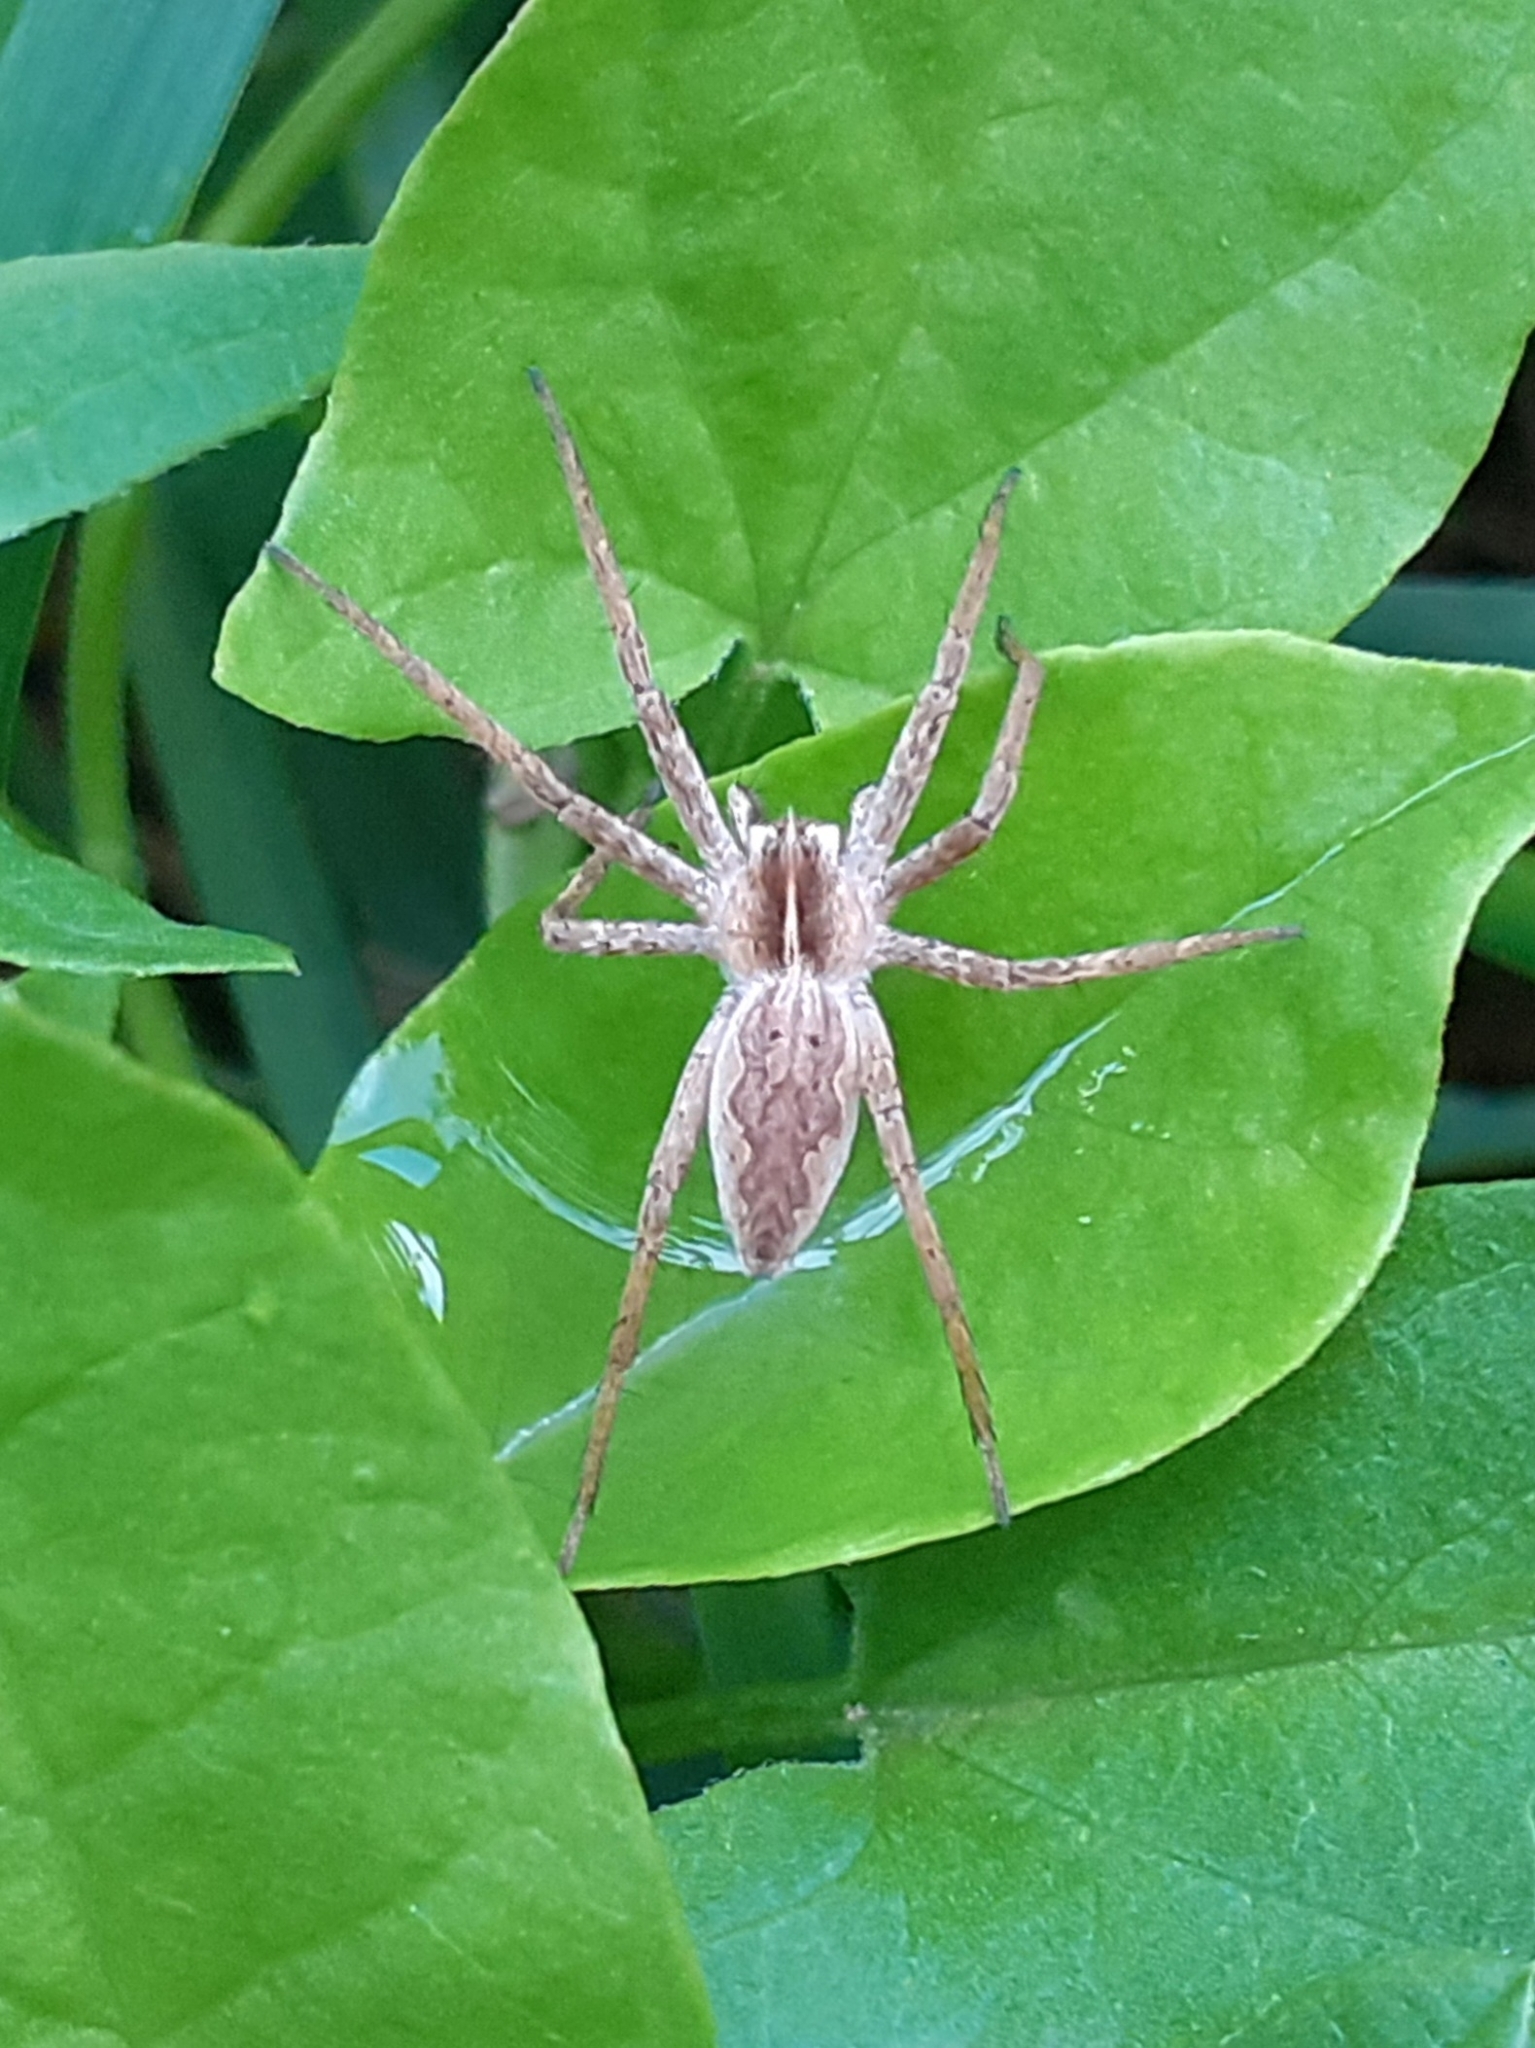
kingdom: Animalia
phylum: Arthropoda
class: Arachnida
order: Araneae
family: Pisauridae
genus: Pisaura
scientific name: Pisaura mirabilis
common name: Tent spider
